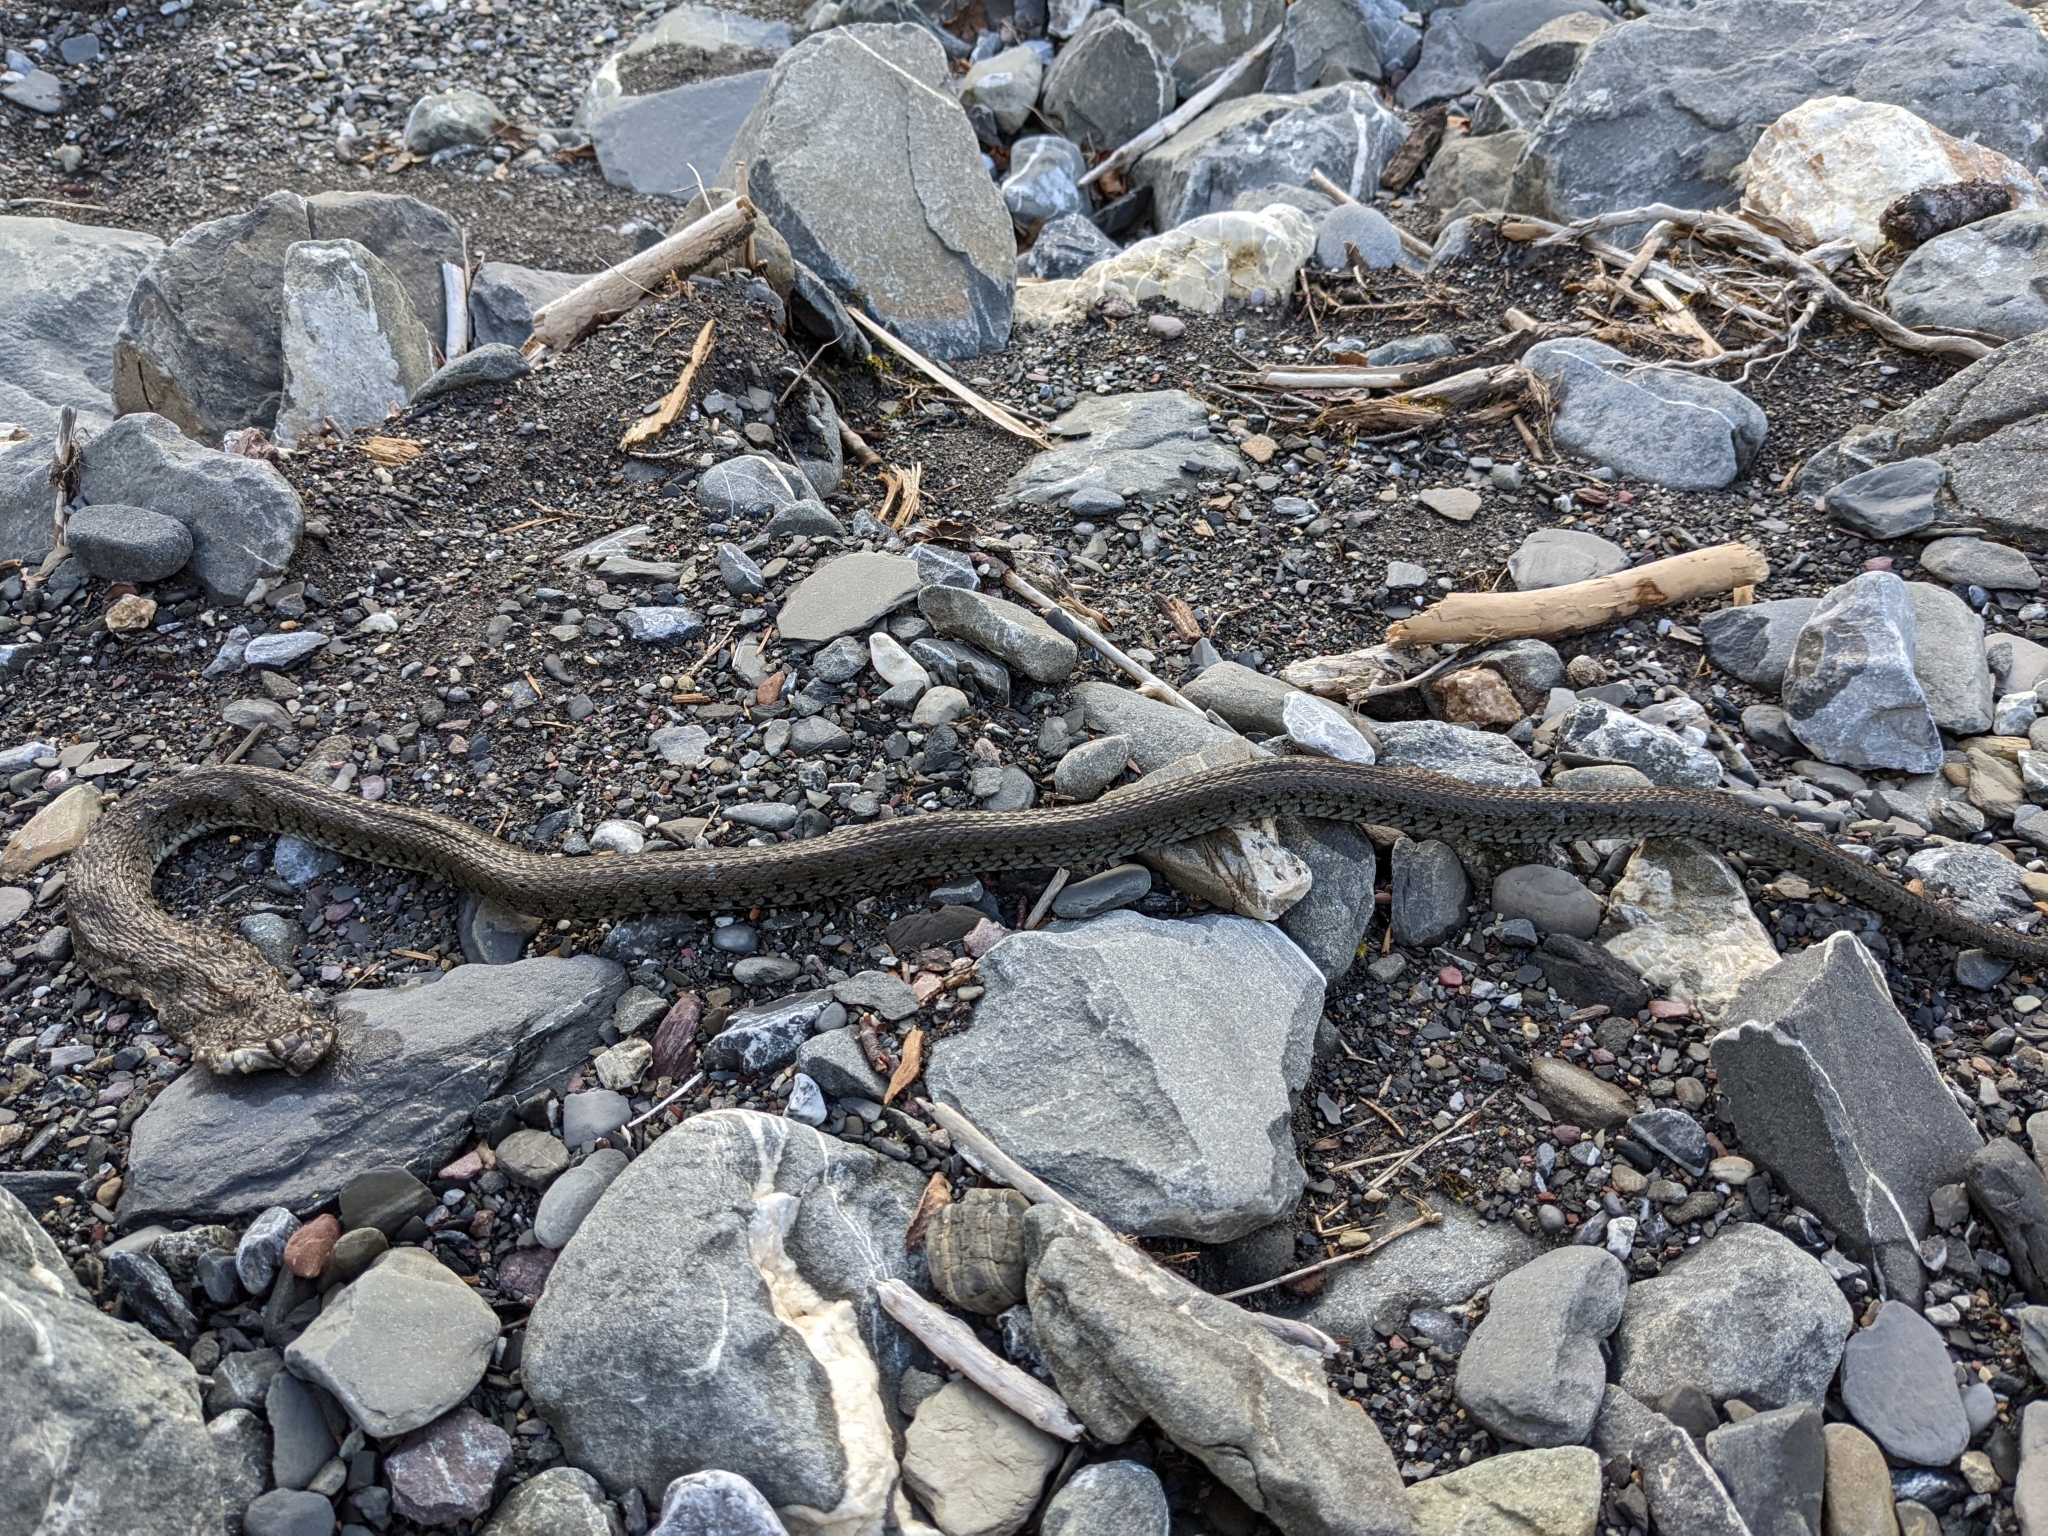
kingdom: Animalia
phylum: Chordata
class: Squamata
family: Colubridae
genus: Natrix
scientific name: Natrix helvetica
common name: Banded grass snake
